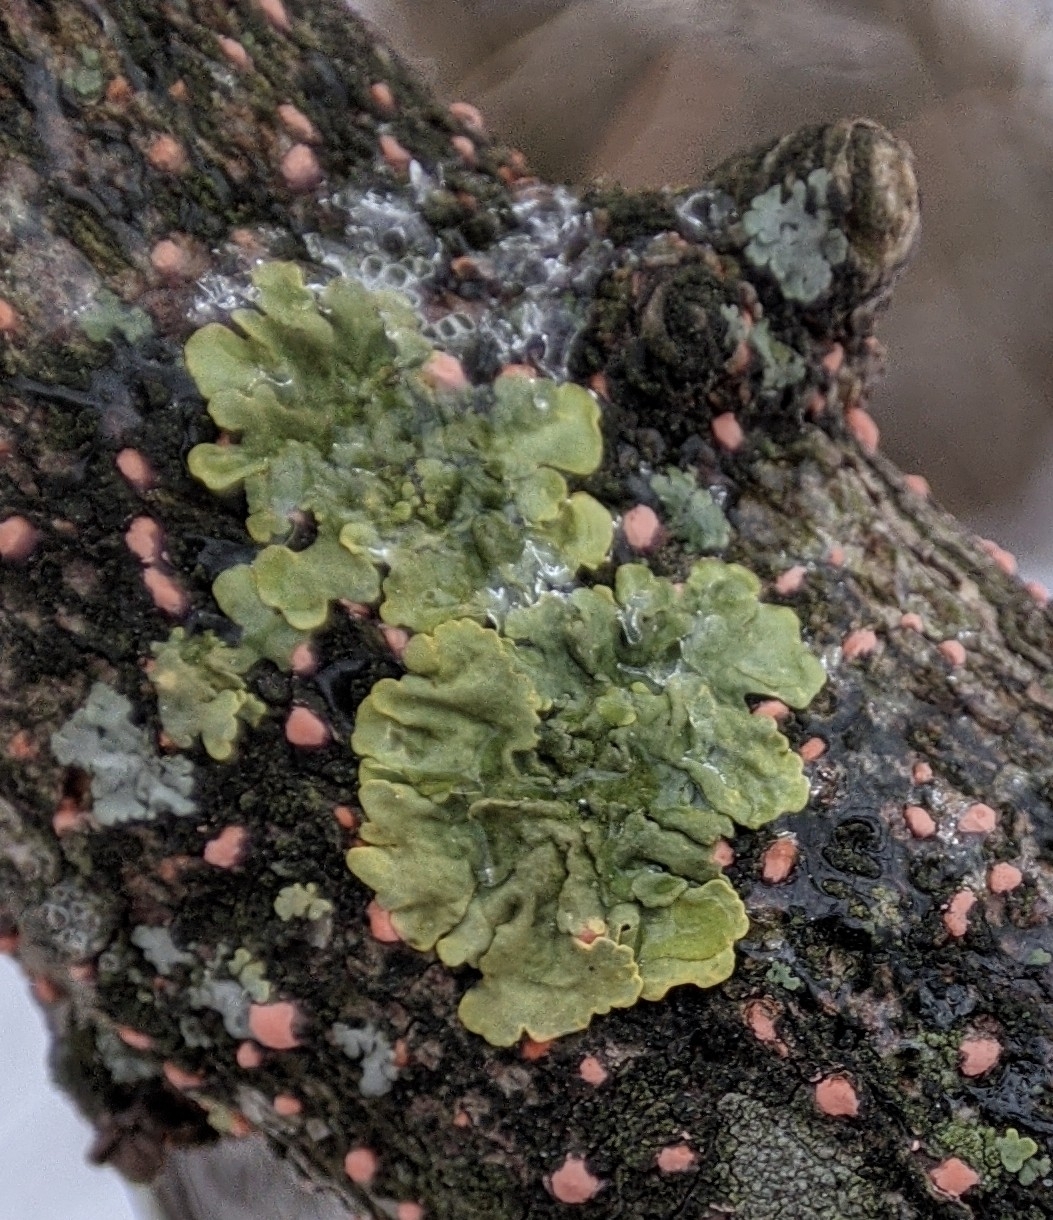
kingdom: Fungi
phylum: Ascomycota
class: Lecanoromycetes
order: Teloschistales
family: Teloschistaceae
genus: Xanthoria
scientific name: Xanthoria parietina
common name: Common orange lichen
